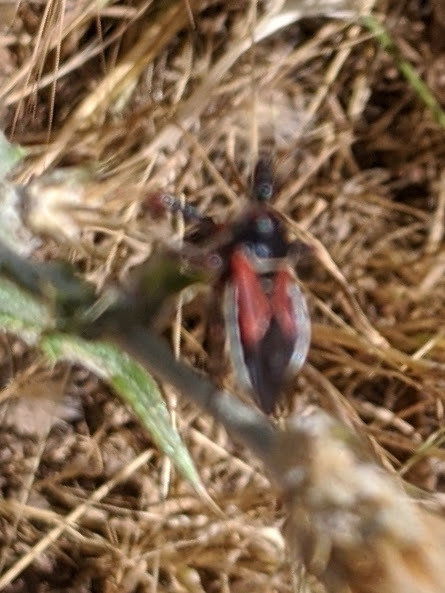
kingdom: Animalia
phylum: Arthropoda
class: Insecta
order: Hemiptera
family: Reduviidae
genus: Apiomerus
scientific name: Apiomerus californicus
